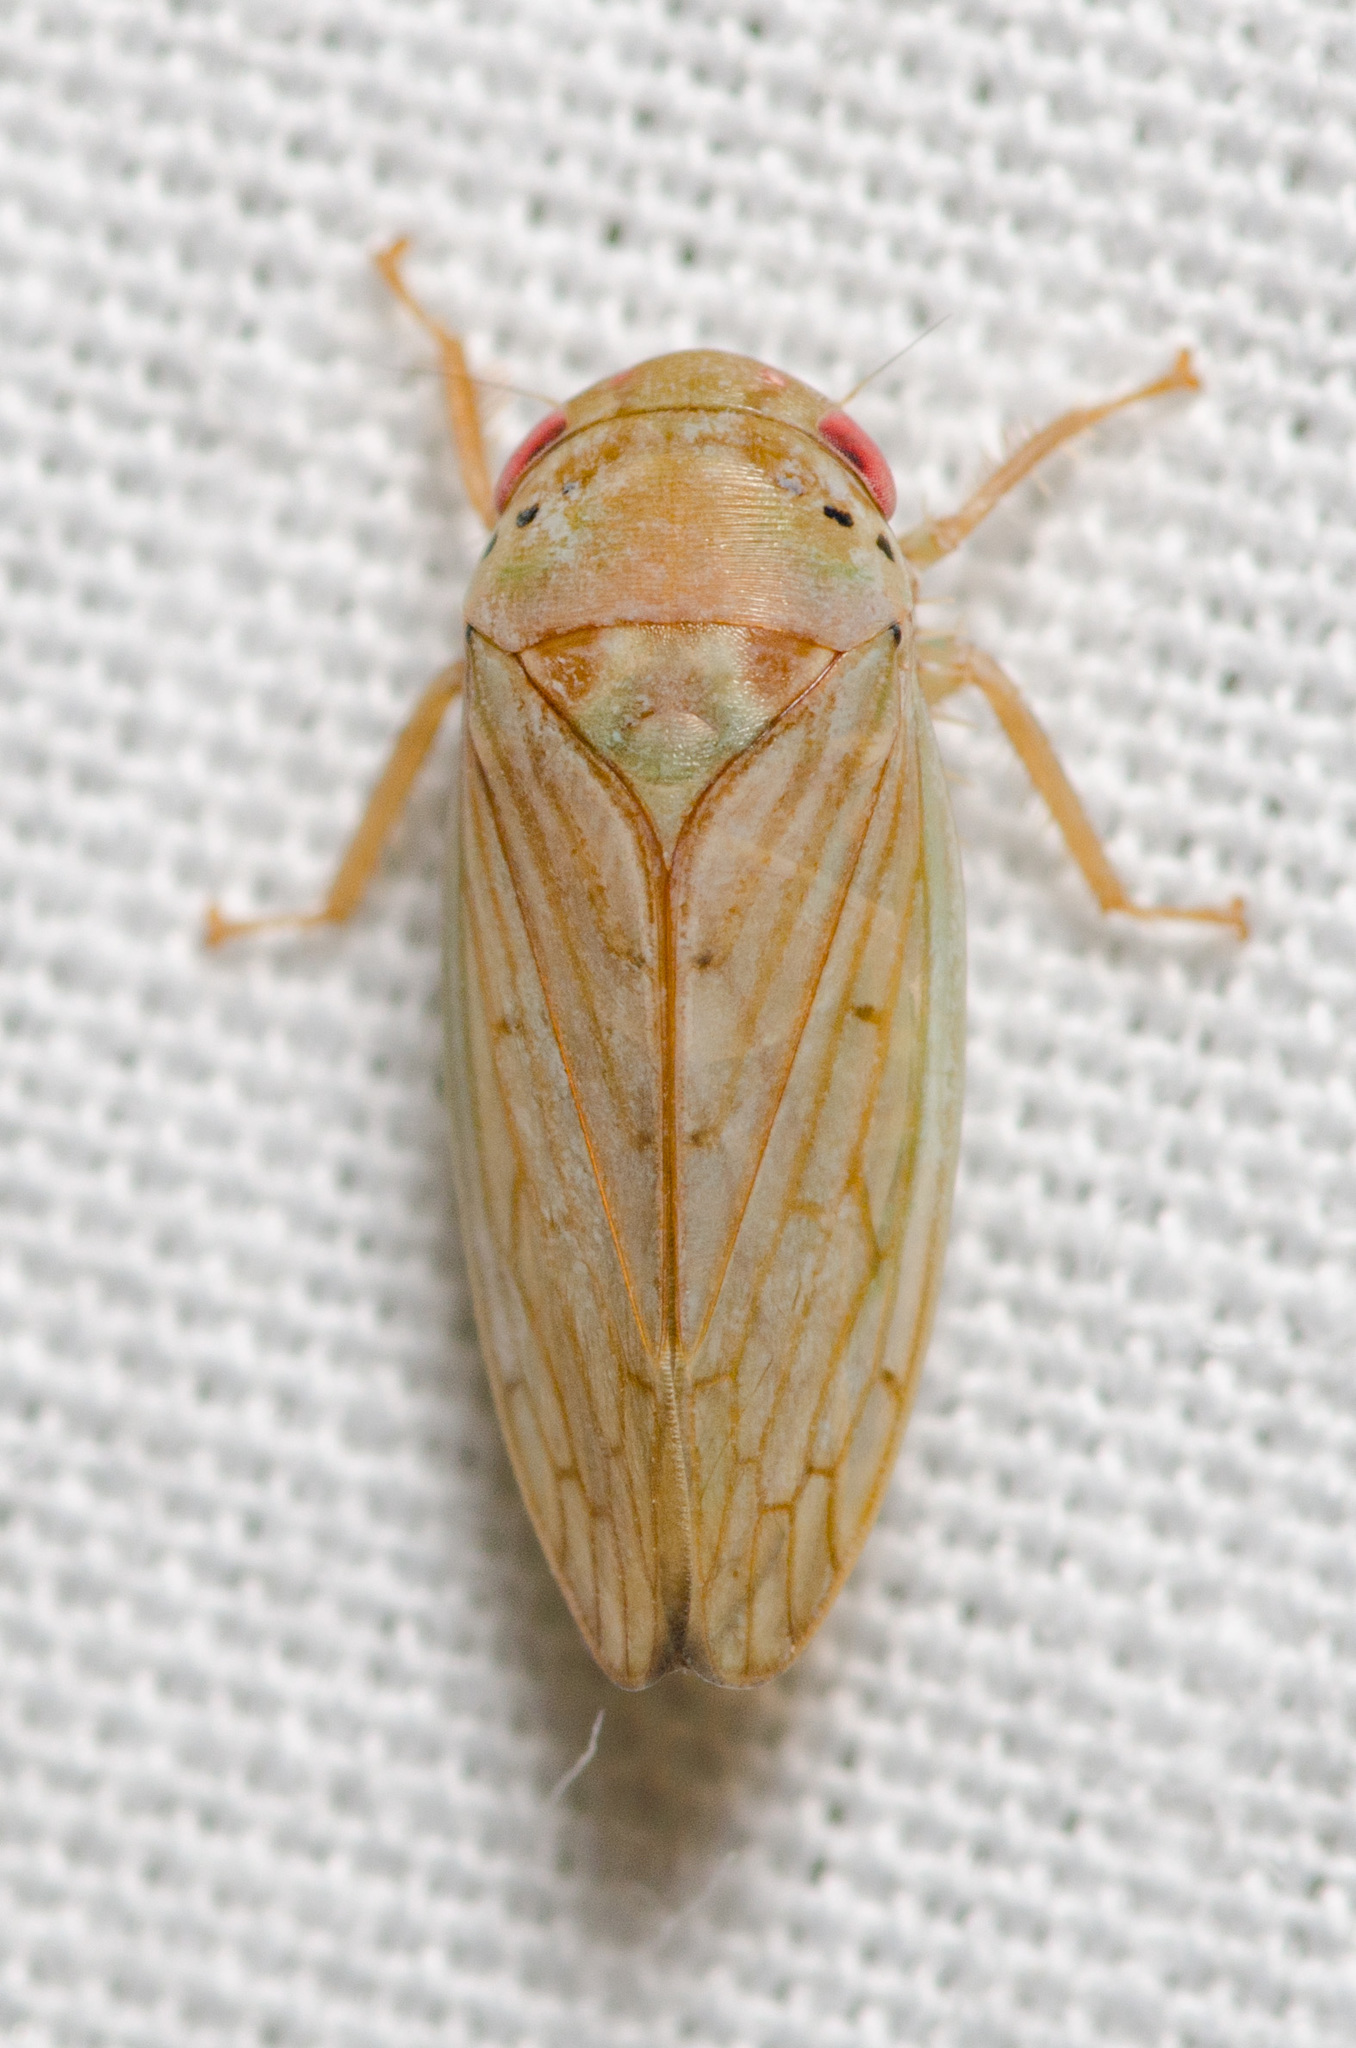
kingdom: Animalia
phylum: Arthropoda
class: Insecta
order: Hemiptera
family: Cicadellidae
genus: Polana
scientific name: Polana quadrinotata
